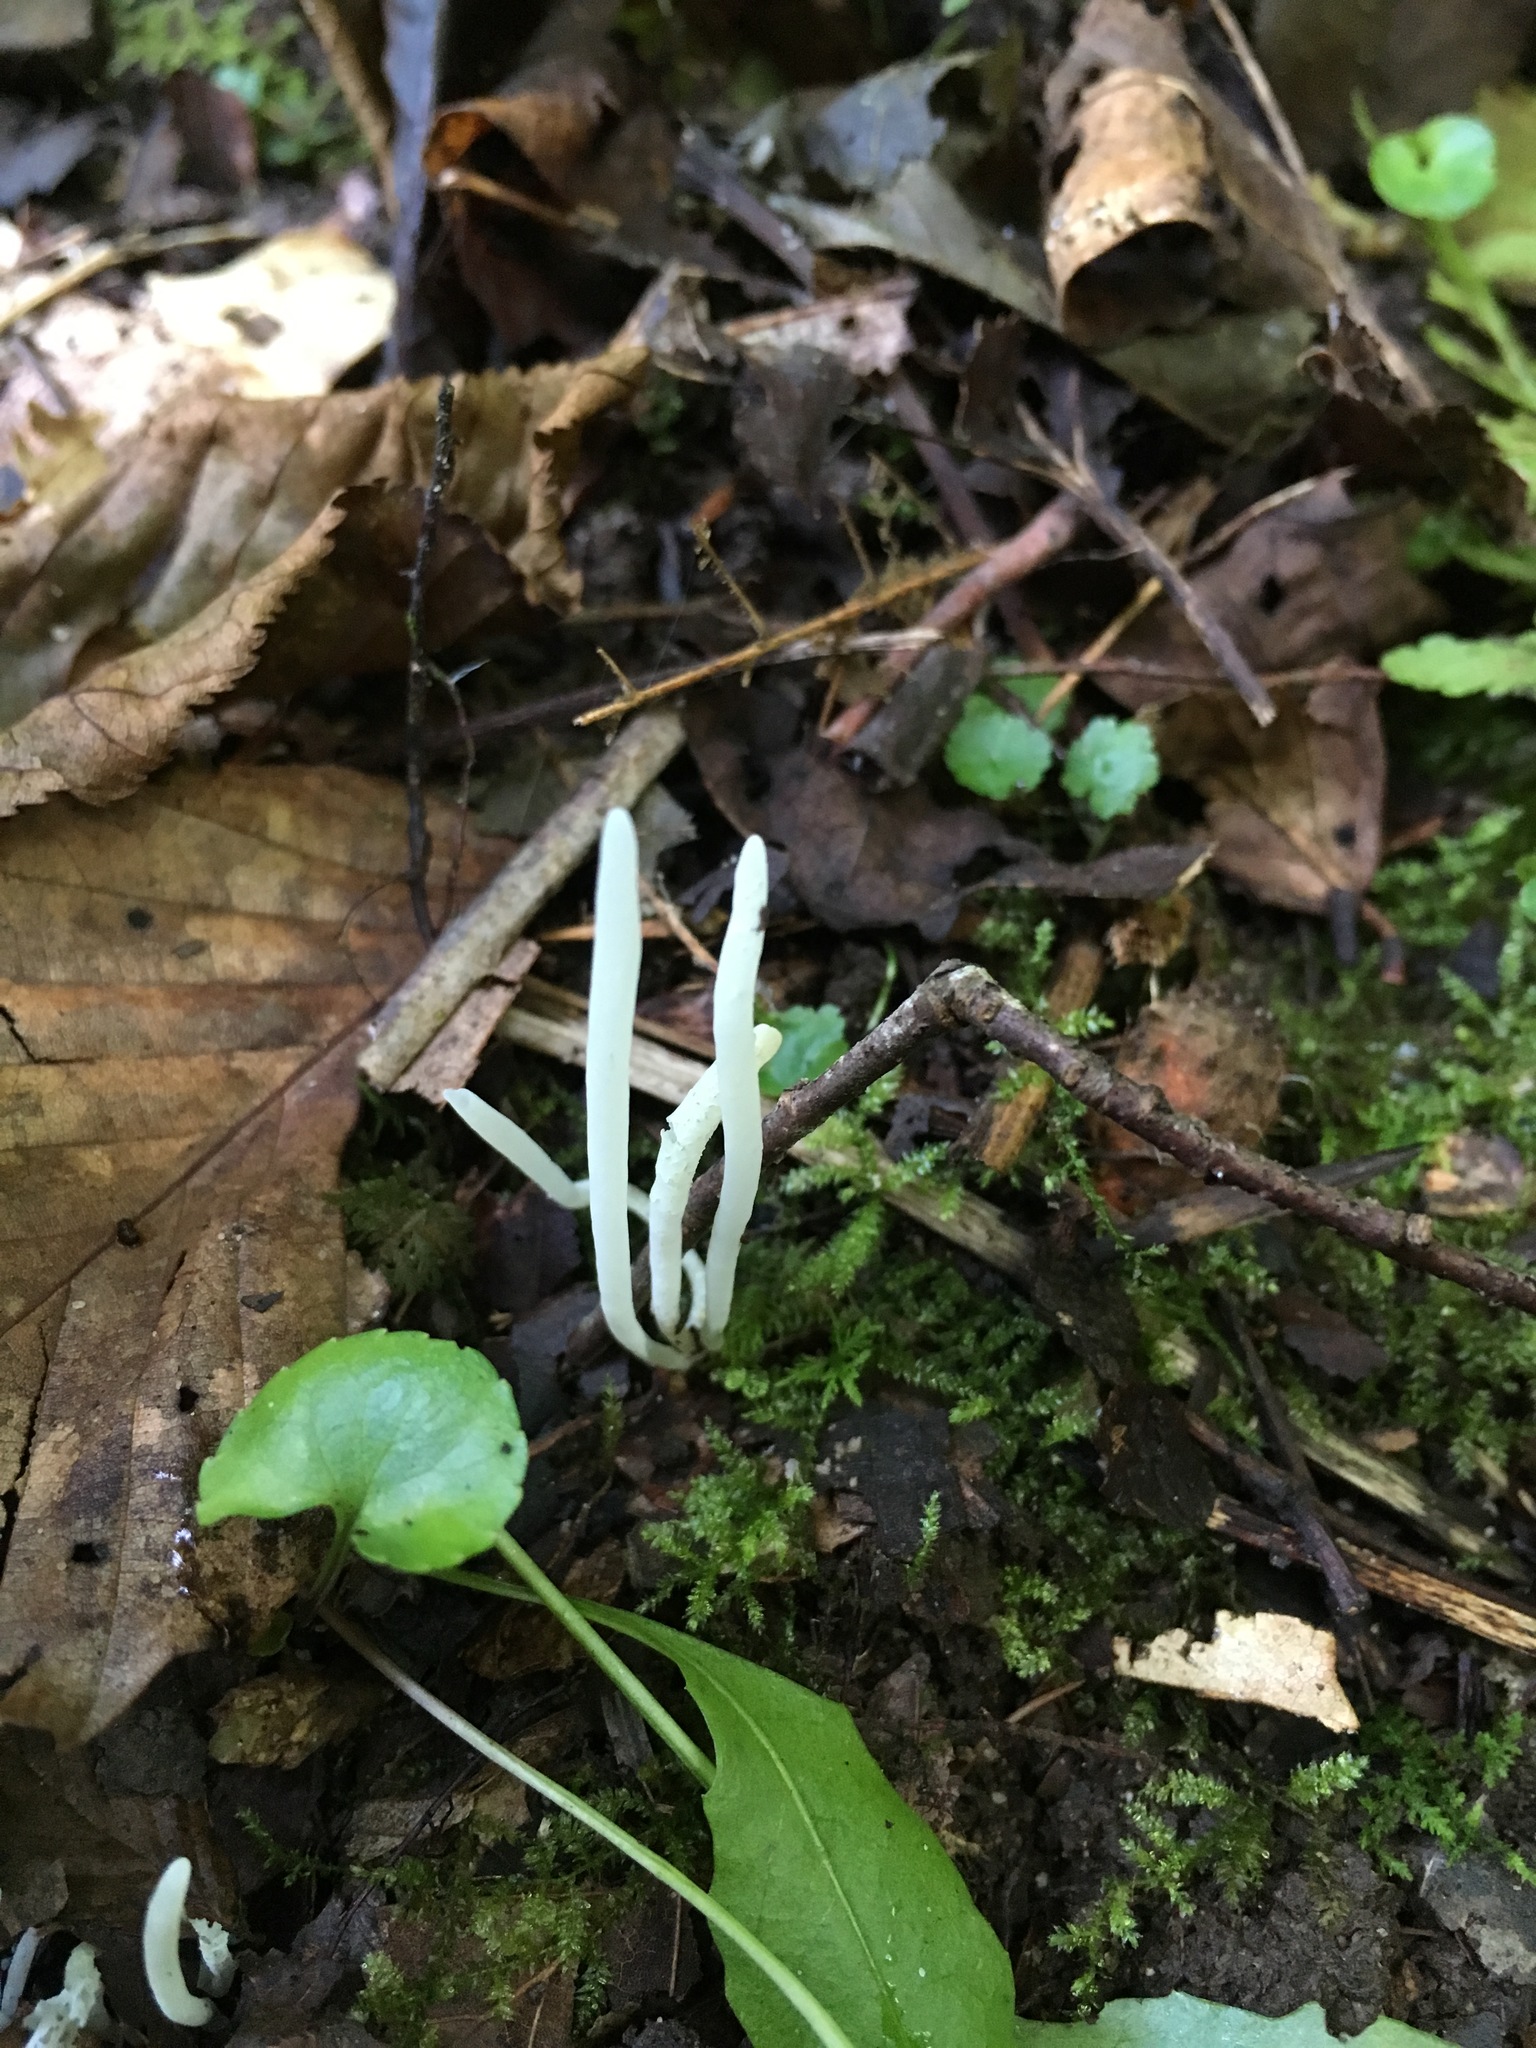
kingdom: Fungi
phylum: Basidiomycota
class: Agaricomycetes
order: Agaricales
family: Clavariaceae
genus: Clavaria
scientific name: Clavaria fragilis
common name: White spindles
